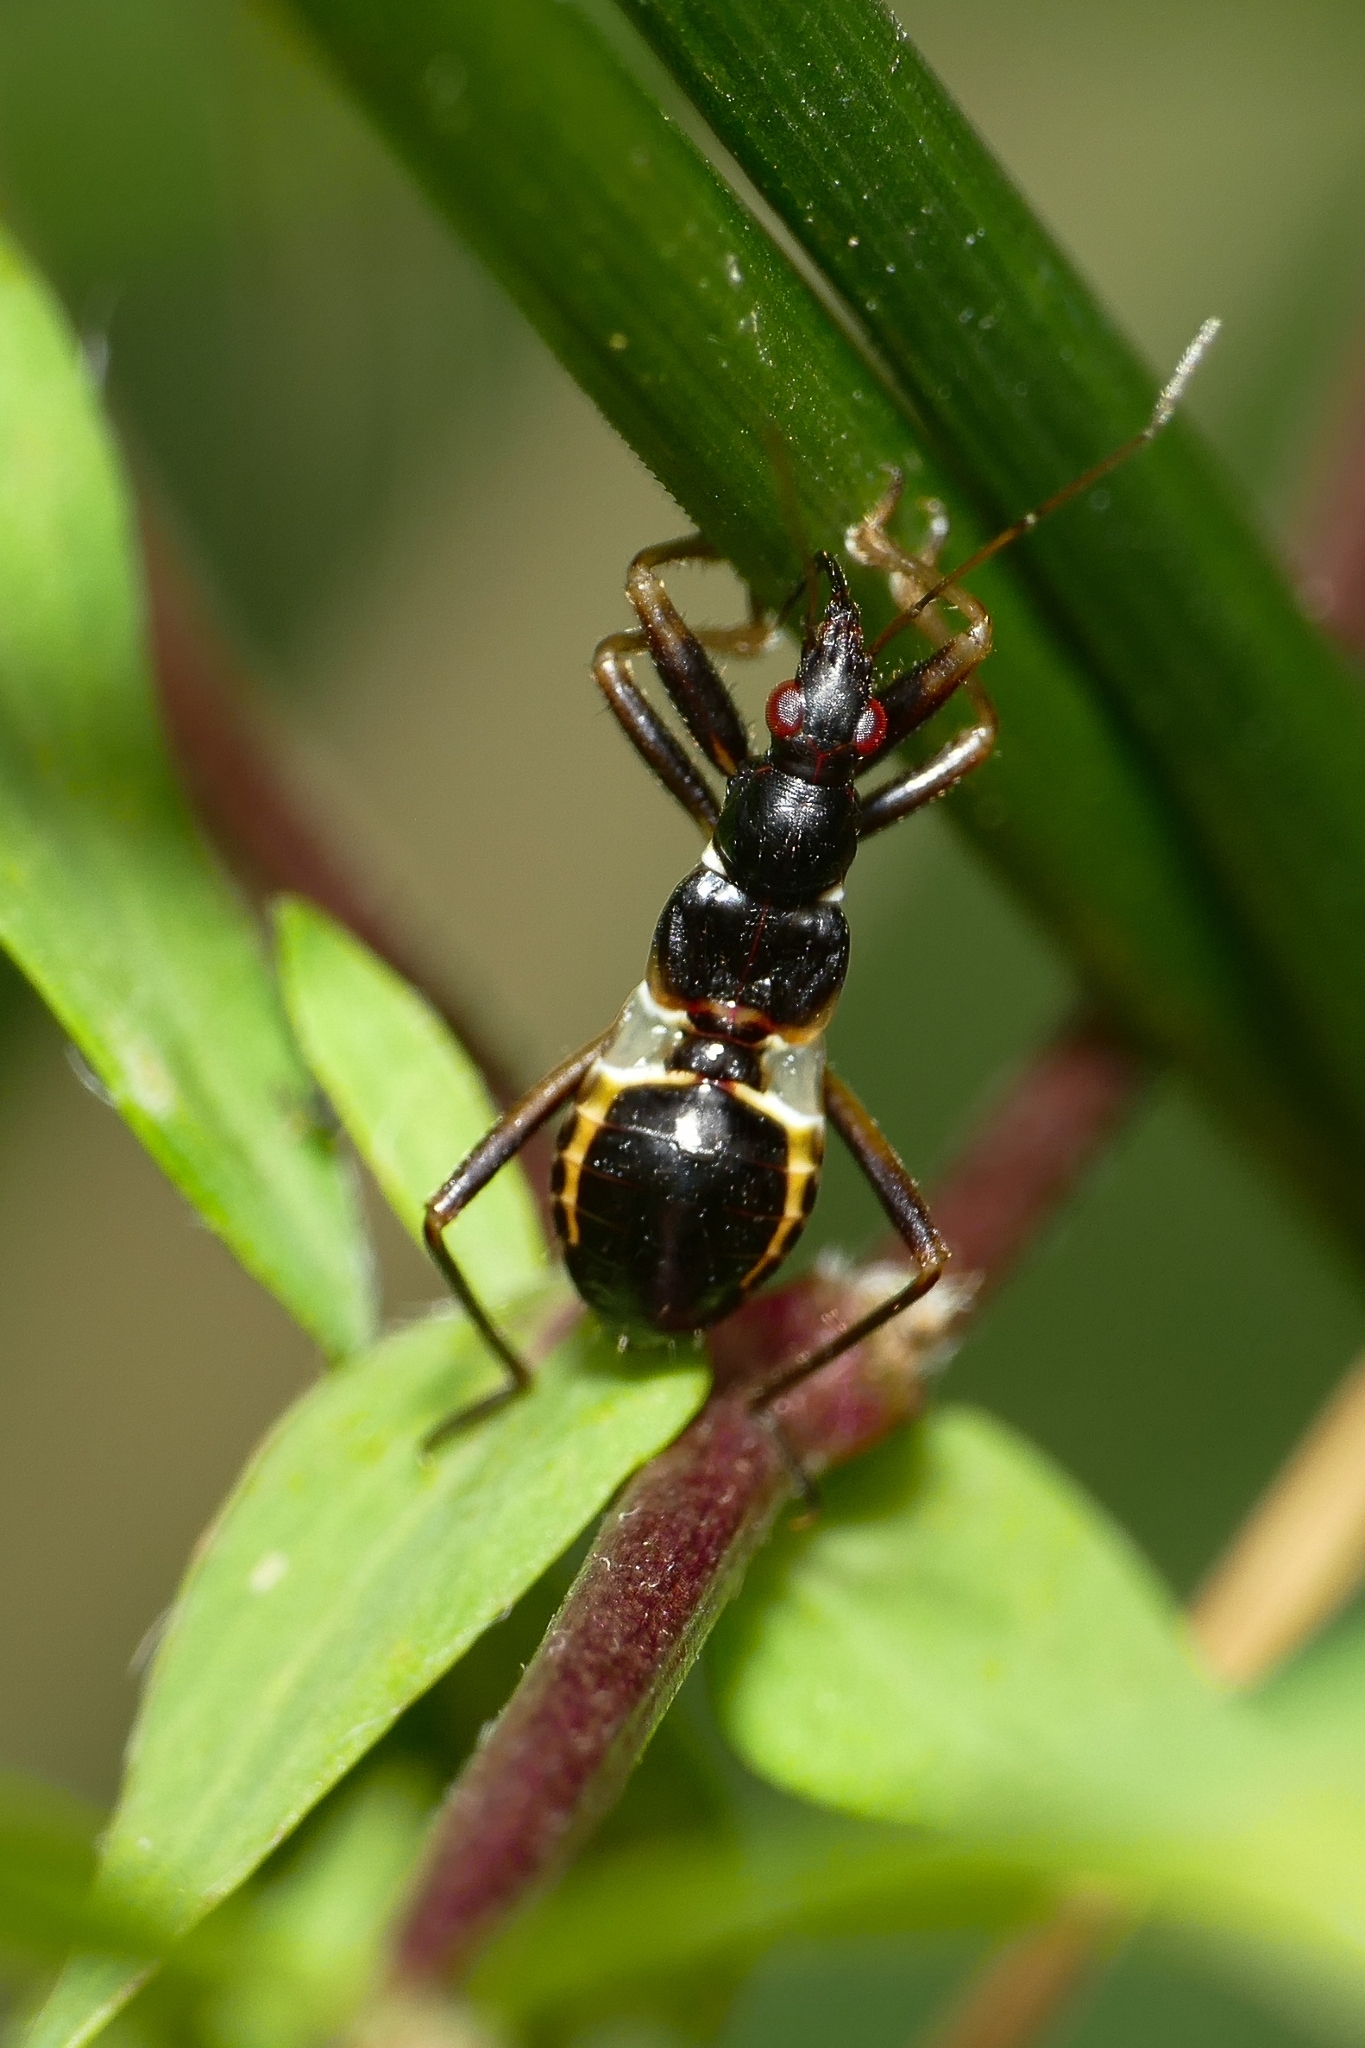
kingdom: Animalia
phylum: Arthropoda
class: Insecta
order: Hemiptera
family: Nabidae
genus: Himacerus
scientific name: Himacerus mirmicoides
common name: Ant damsel bug
